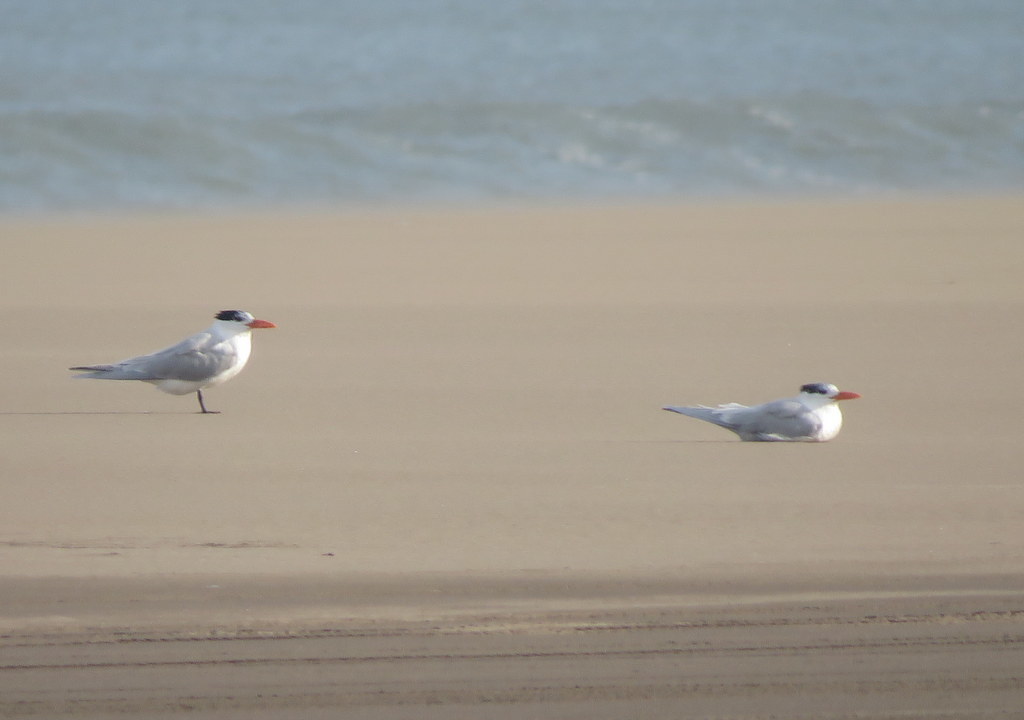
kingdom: Animalia
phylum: Chordata
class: Aves
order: Charadriiformes
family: Laridae
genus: Thalasseus
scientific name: Thalasseus maximus
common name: Royal tern
